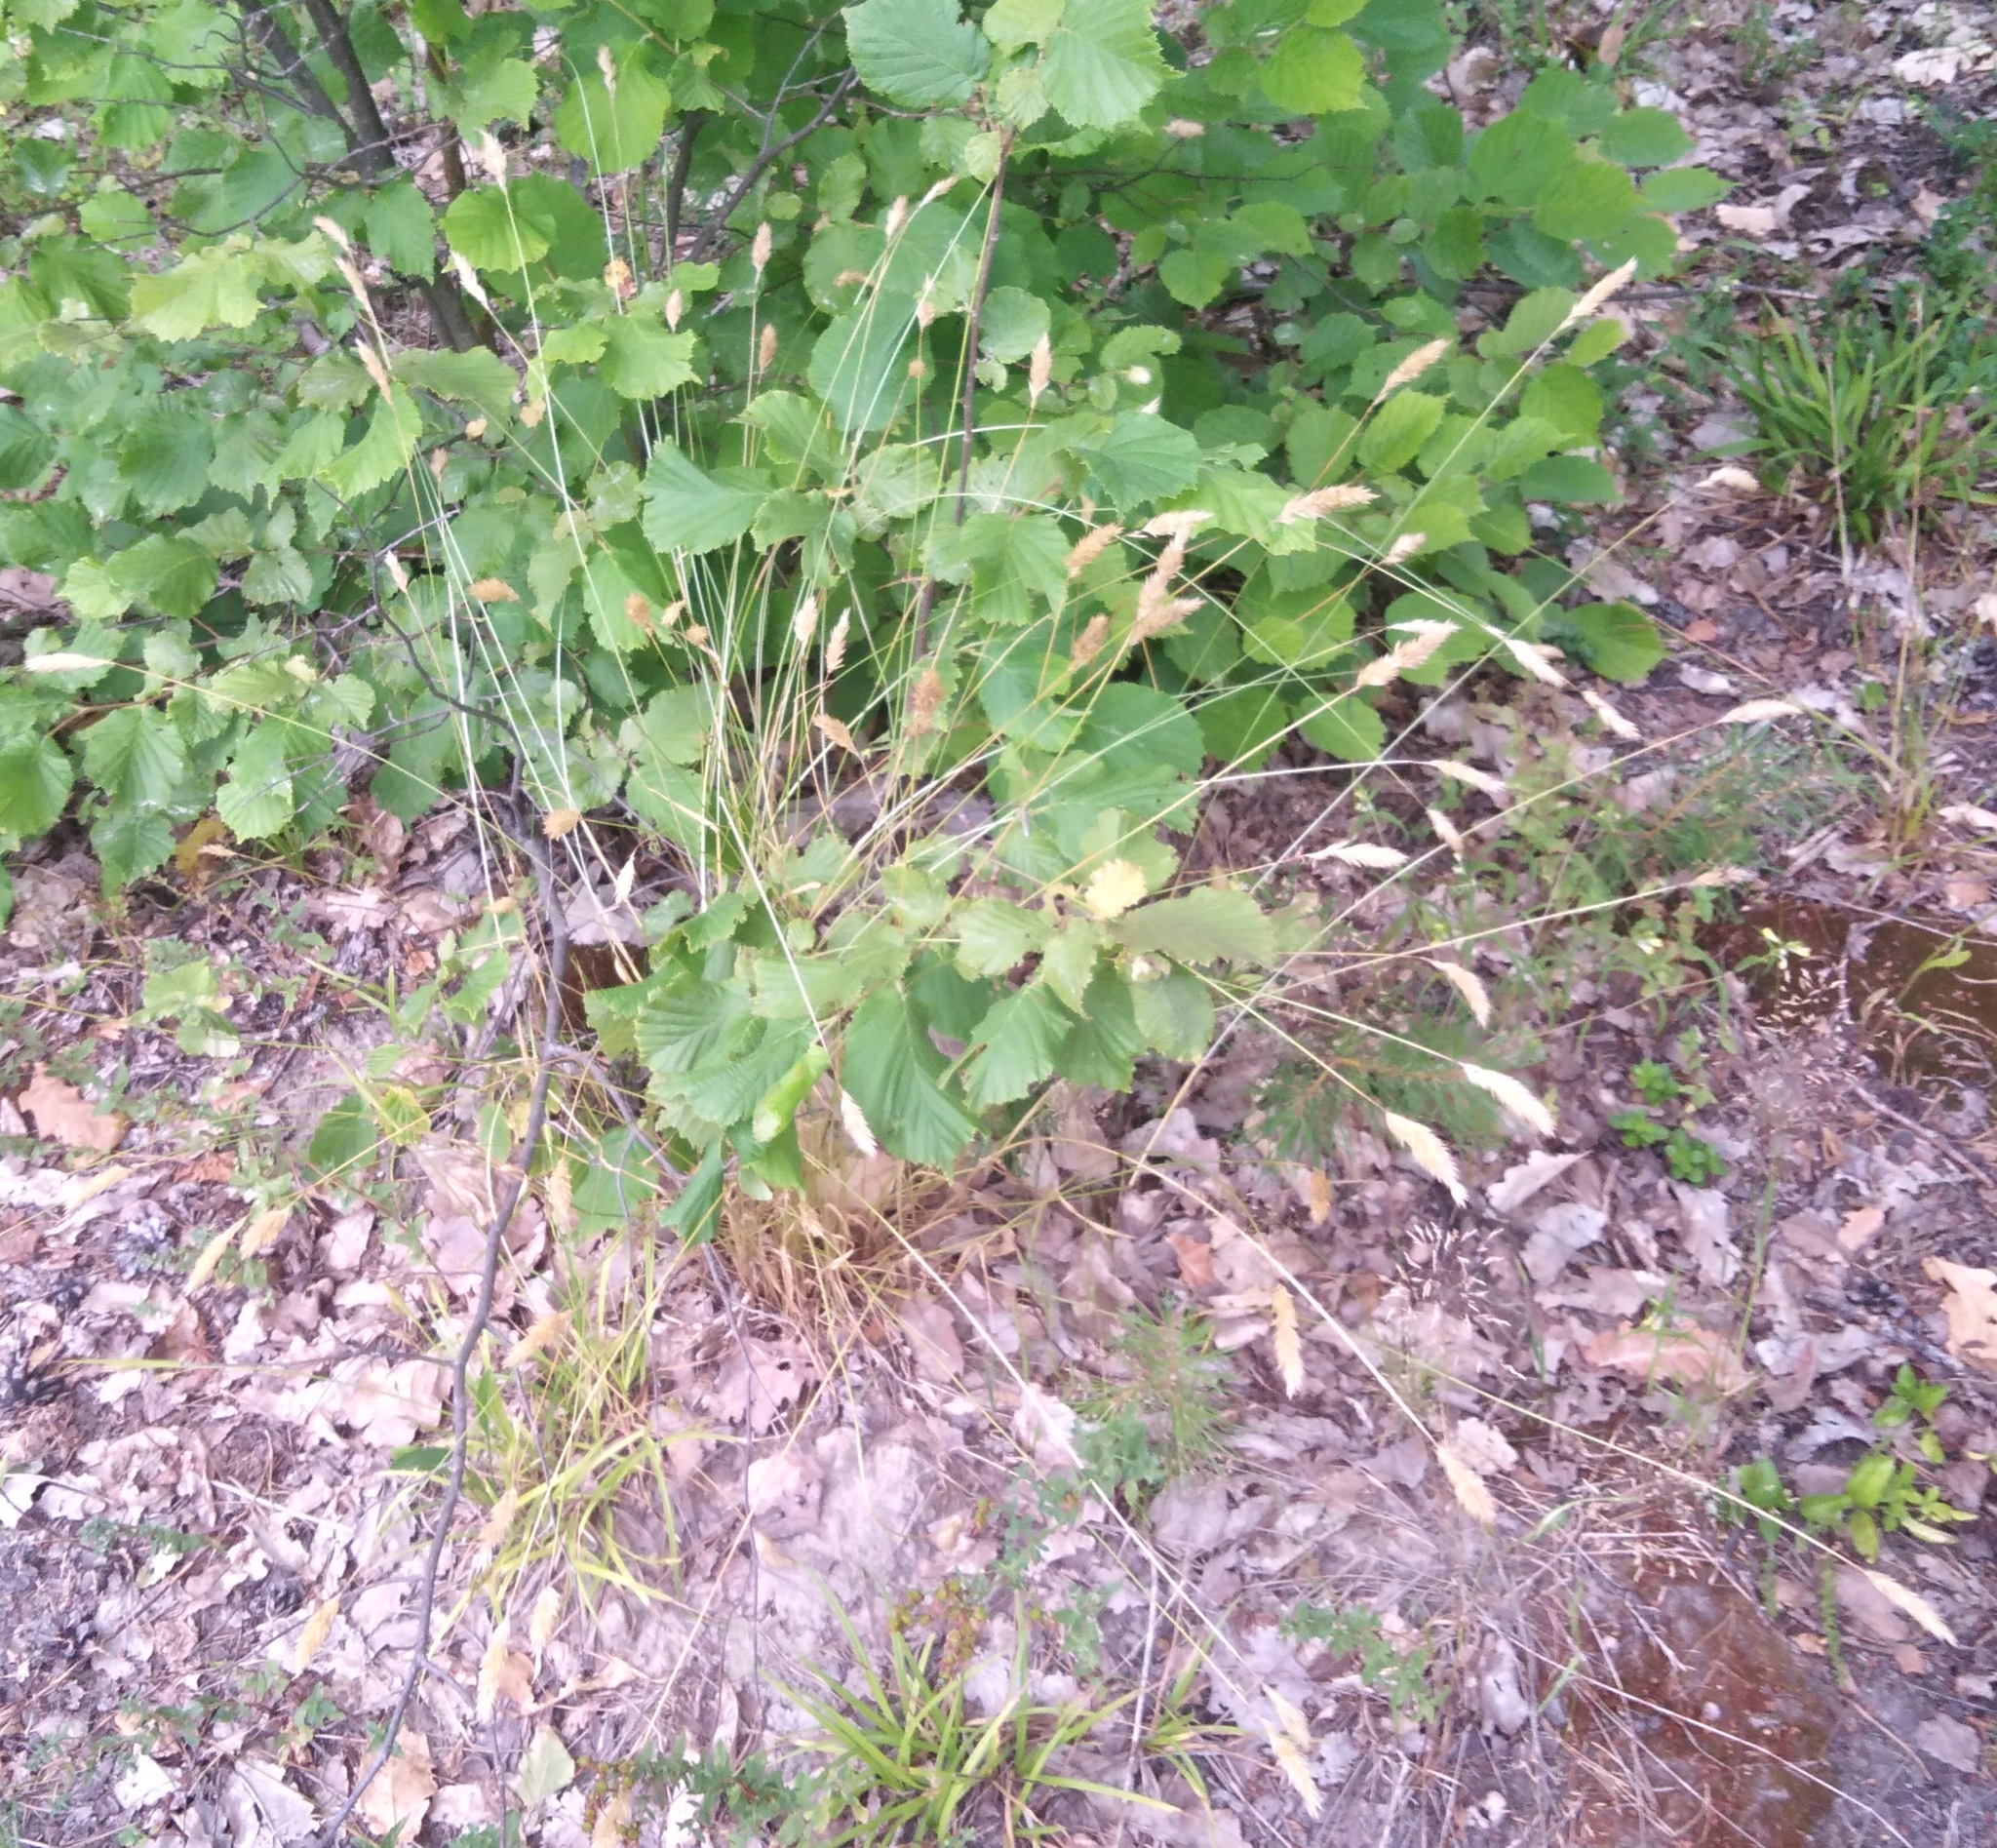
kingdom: Plantae
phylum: Tracheophyta
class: Liliopsida
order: Poales
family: Poaceae
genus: Anthoxanthum
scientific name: Anthoxanthum odoratum
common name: Sweet vernalgrass
